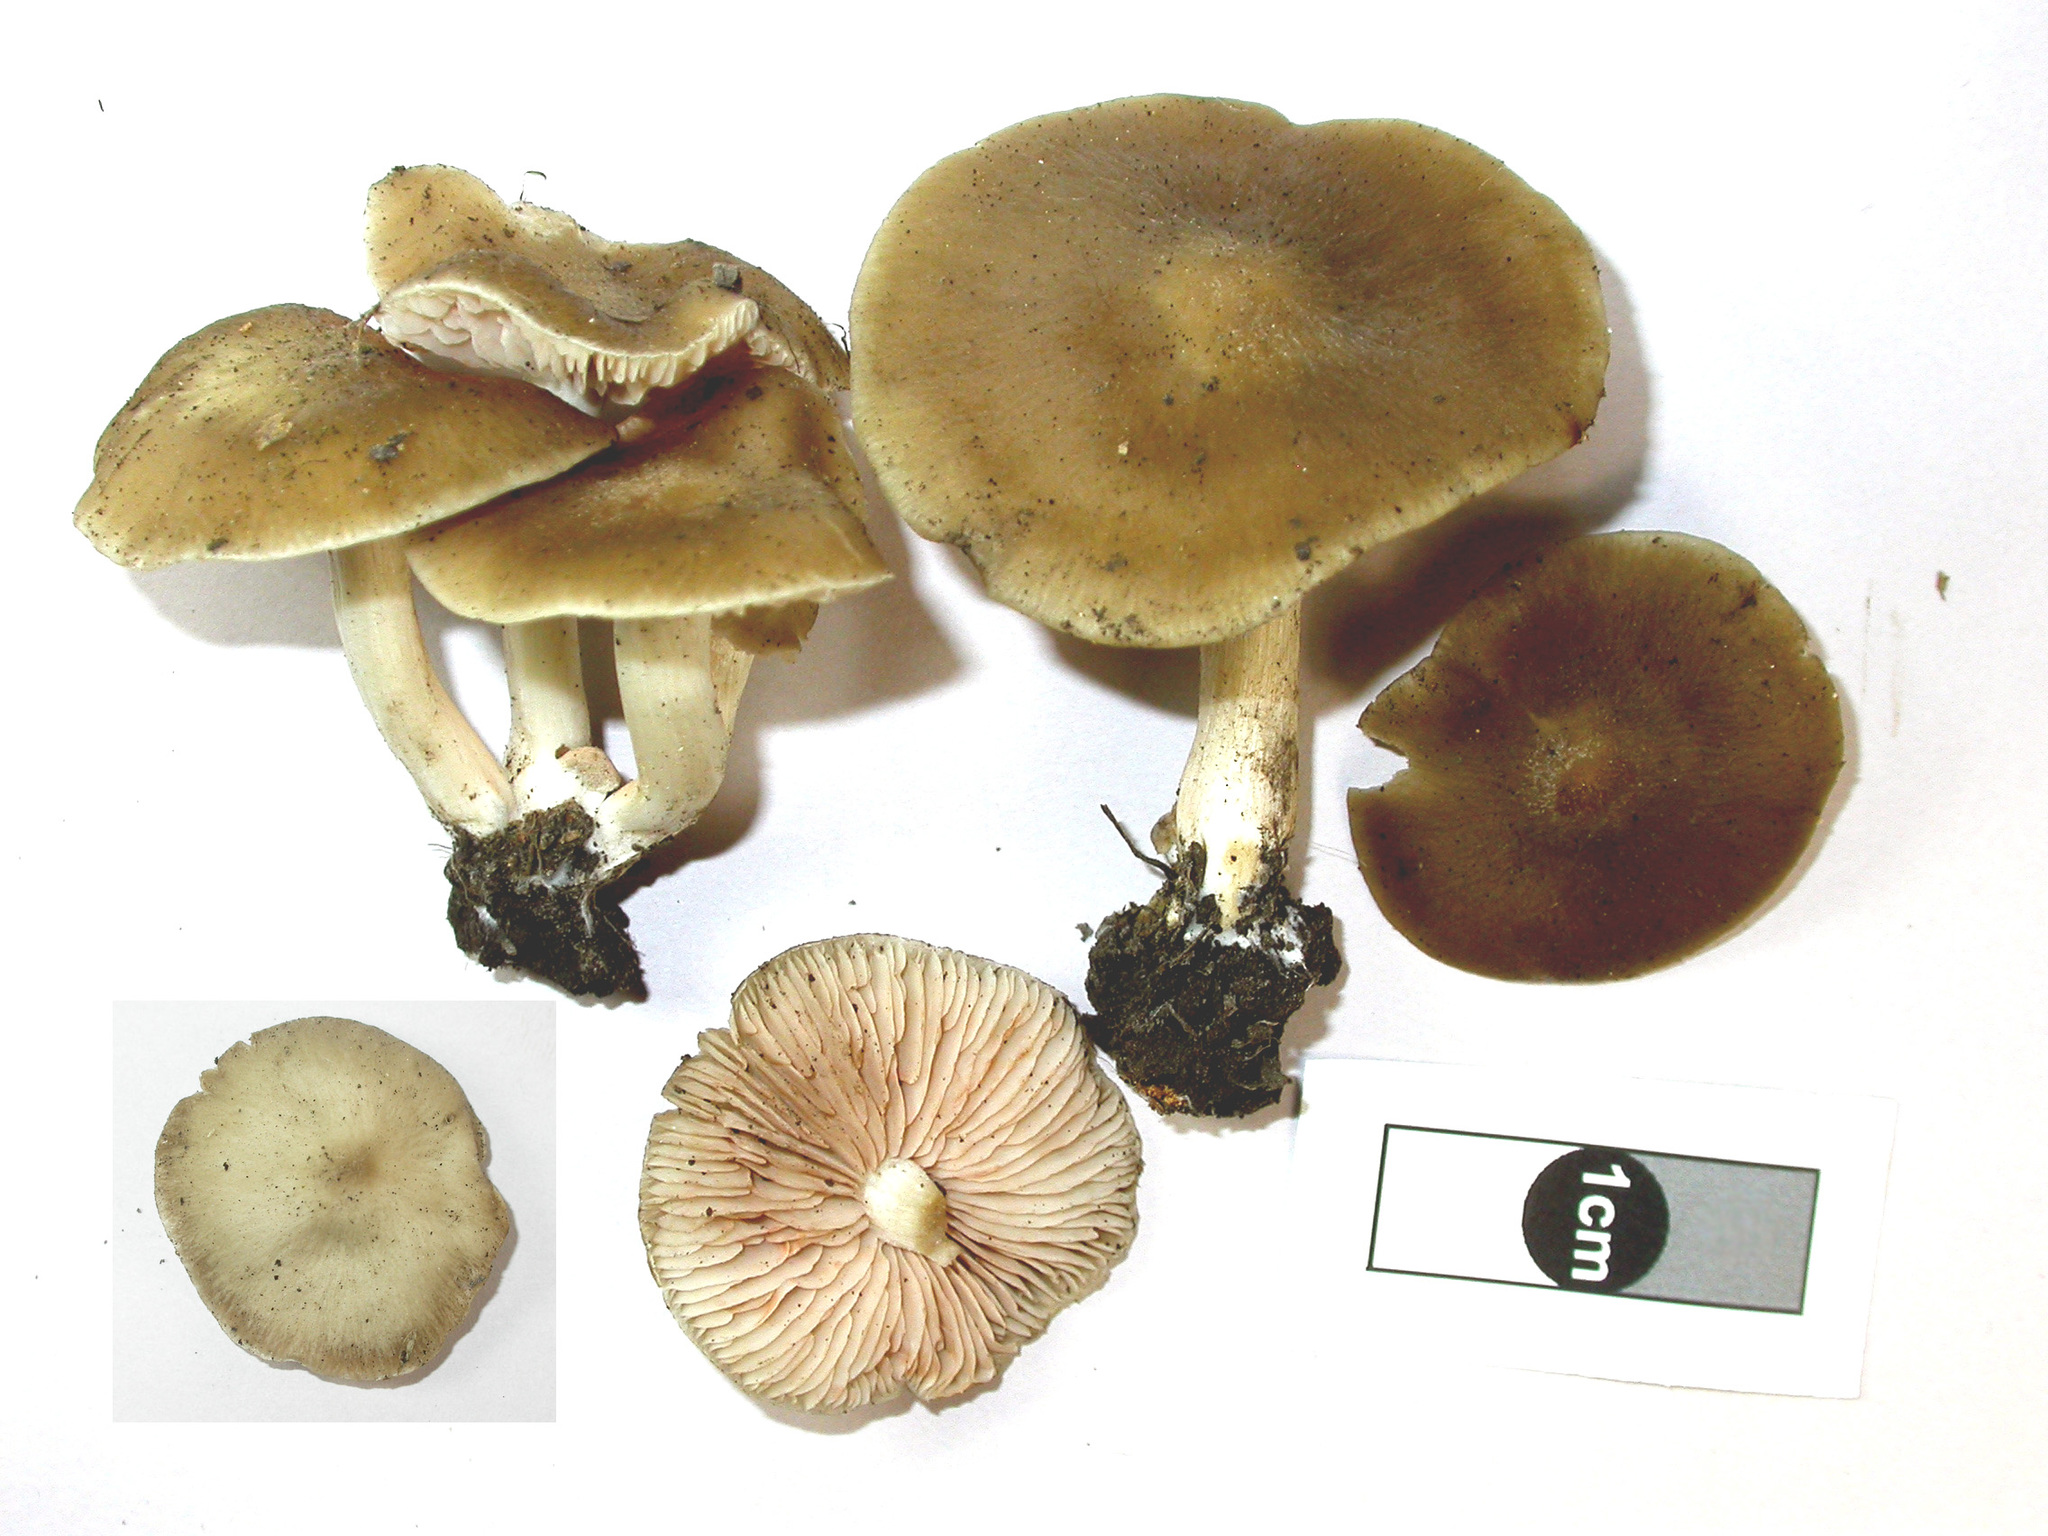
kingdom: Fungi
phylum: Basidiomycota
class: Agaricomycetes
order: Agaricales
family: Entolomataceae
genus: Entoloma
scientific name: Entoloma leucocarpum
